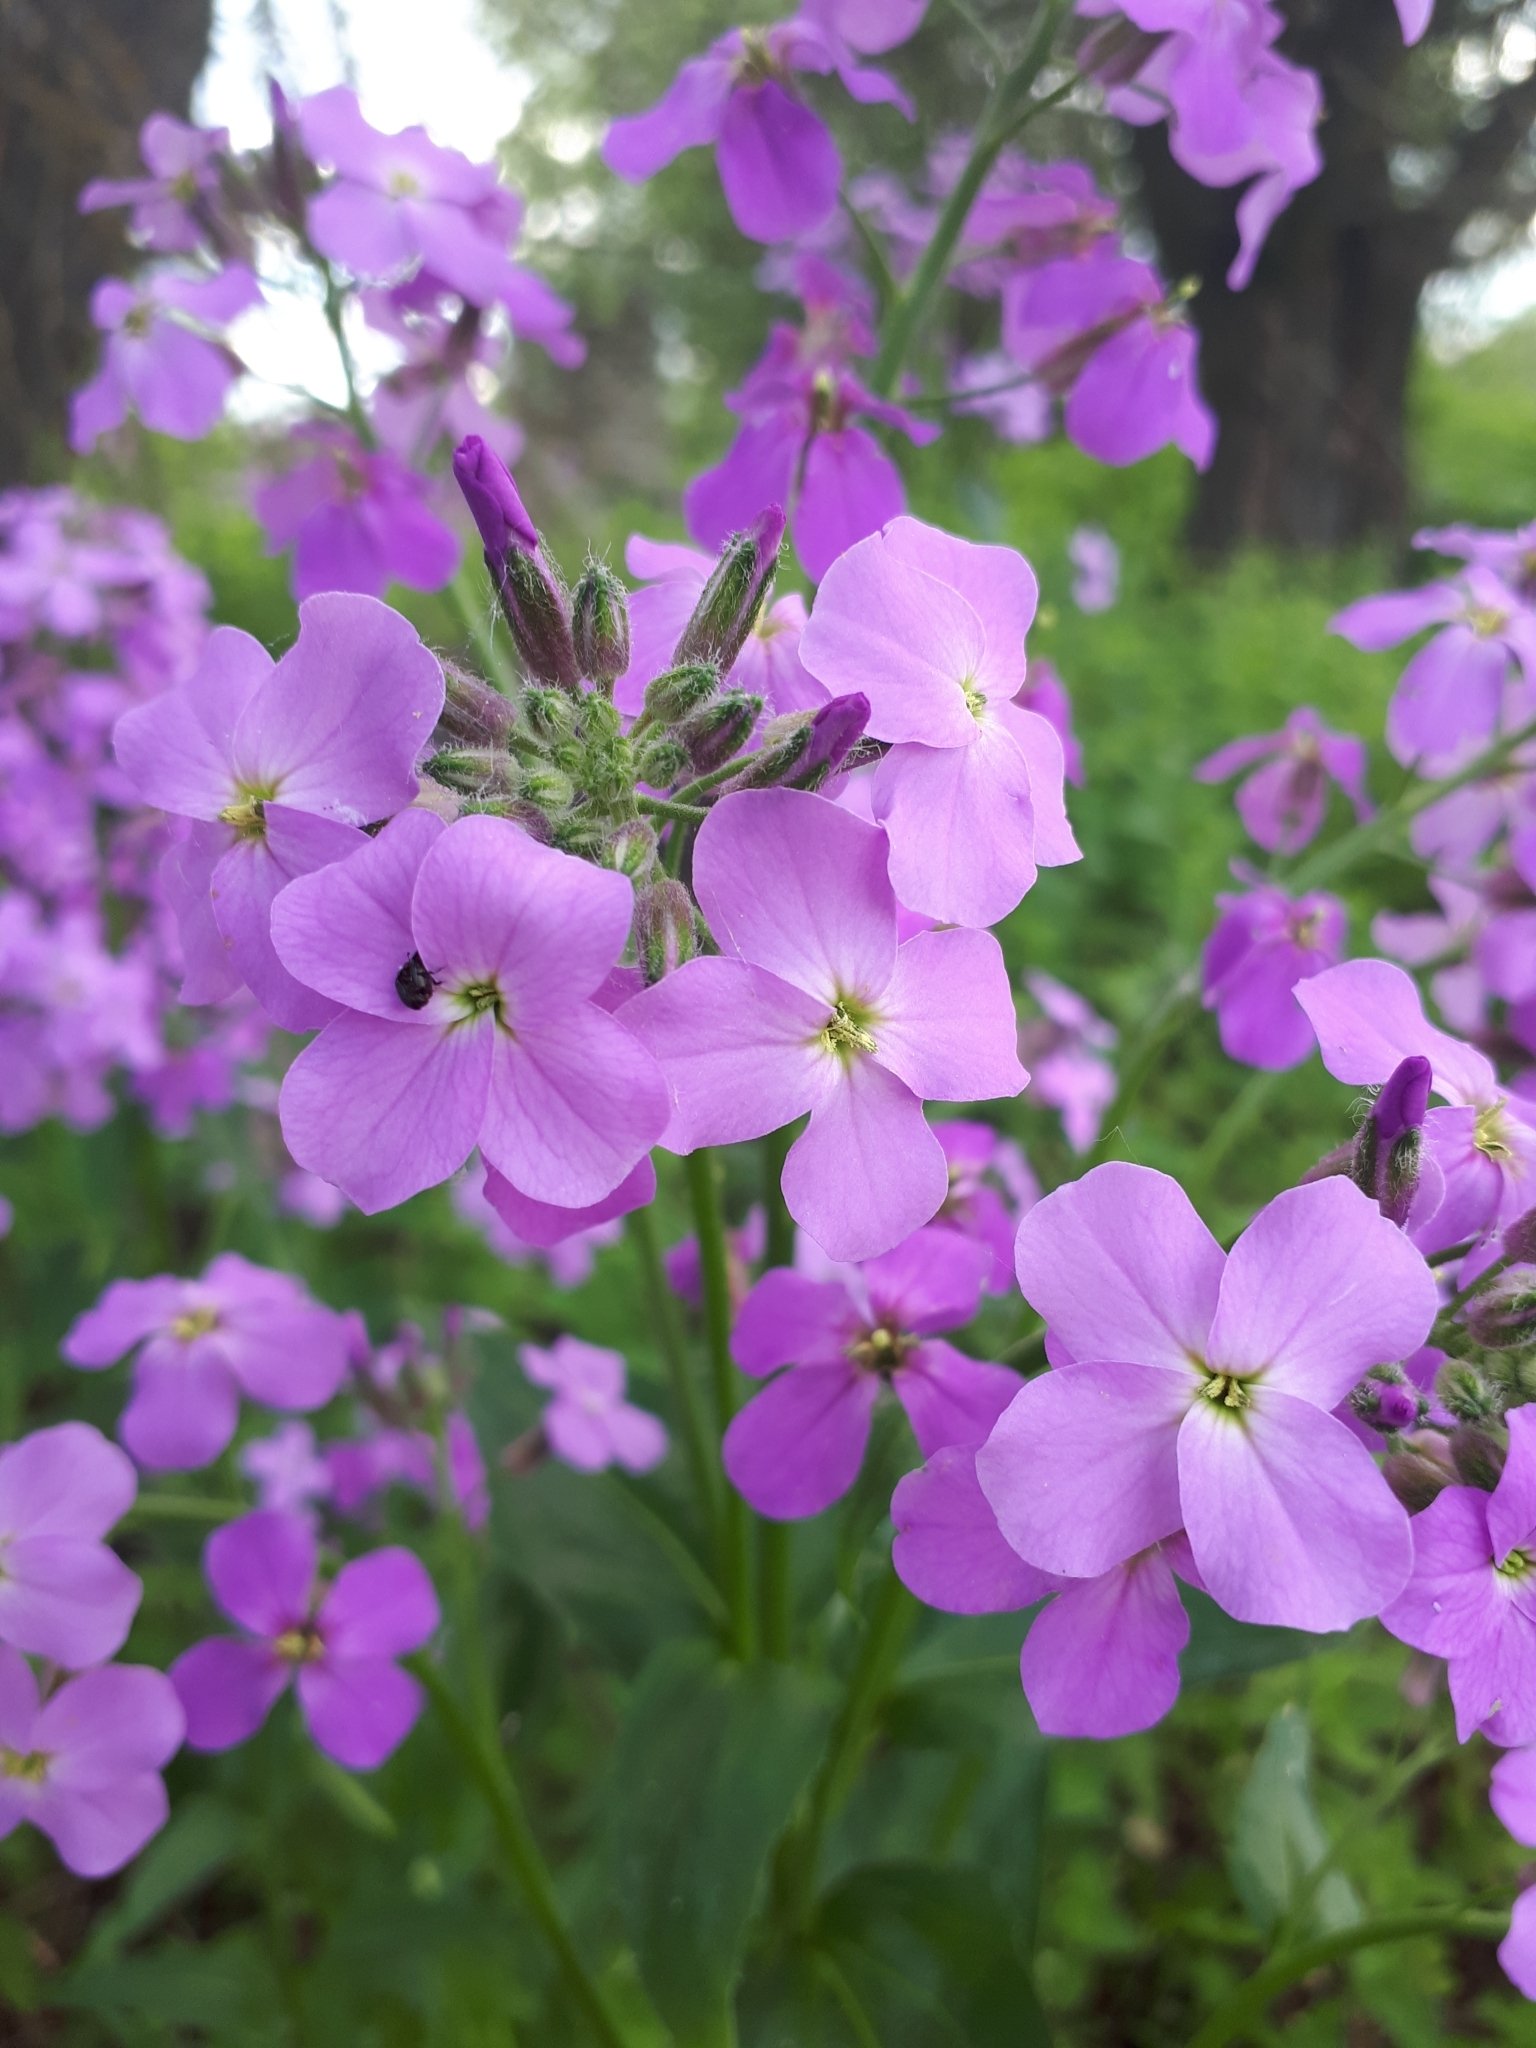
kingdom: Plantae
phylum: Tracheophyta
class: Magnoliopsida
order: Brassicales
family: Brassicaceae
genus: Hesperis
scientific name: Hesperis pycnotricha
